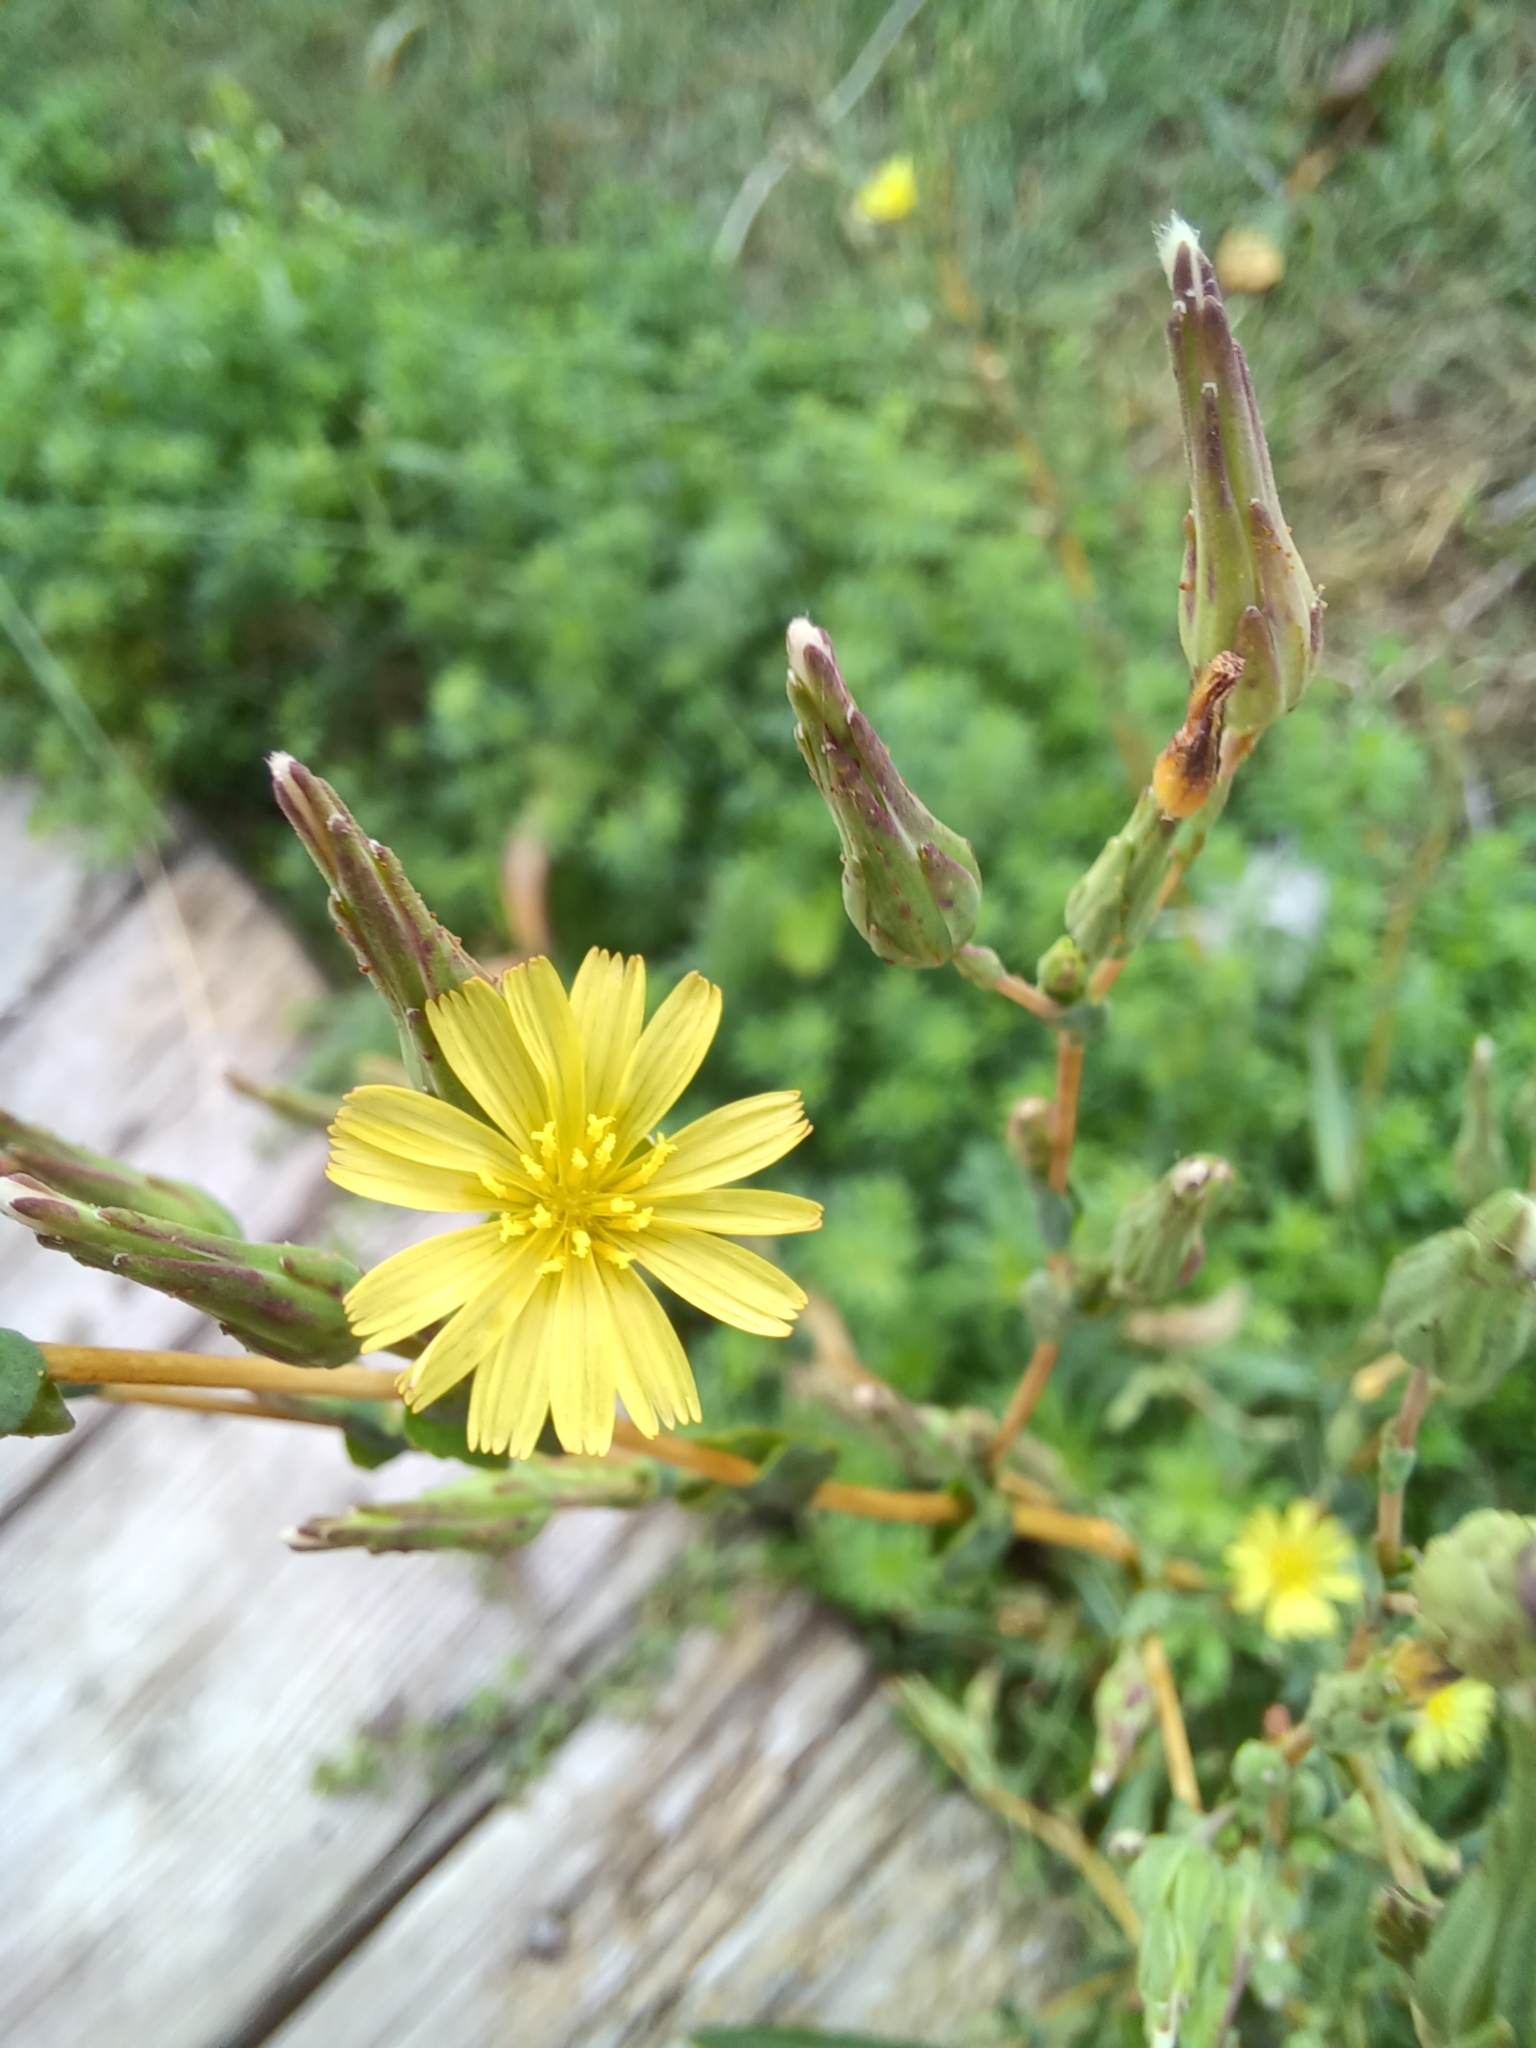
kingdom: Plantae
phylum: Tracheophyta
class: Magnoliopsida
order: Asterales
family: Asteraceae
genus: Lactuca
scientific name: Lactuca serriola
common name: Prickly lettuce
